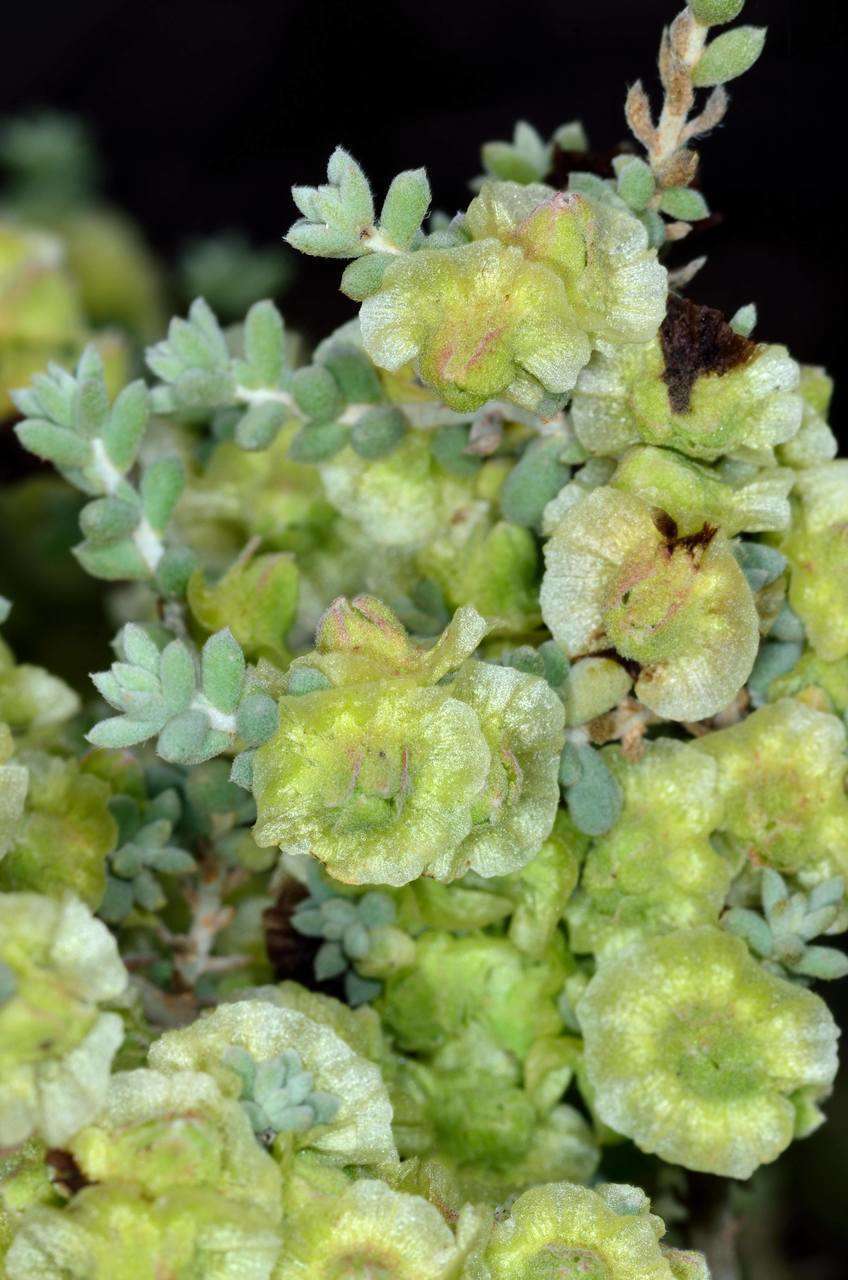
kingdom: Plantae
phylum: Tracheophyta
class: Magnoliopsida
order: Caryophyllales
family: Amaranthaceae
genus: Maireana
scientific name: Maireana pyramidata
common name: Sagobush
